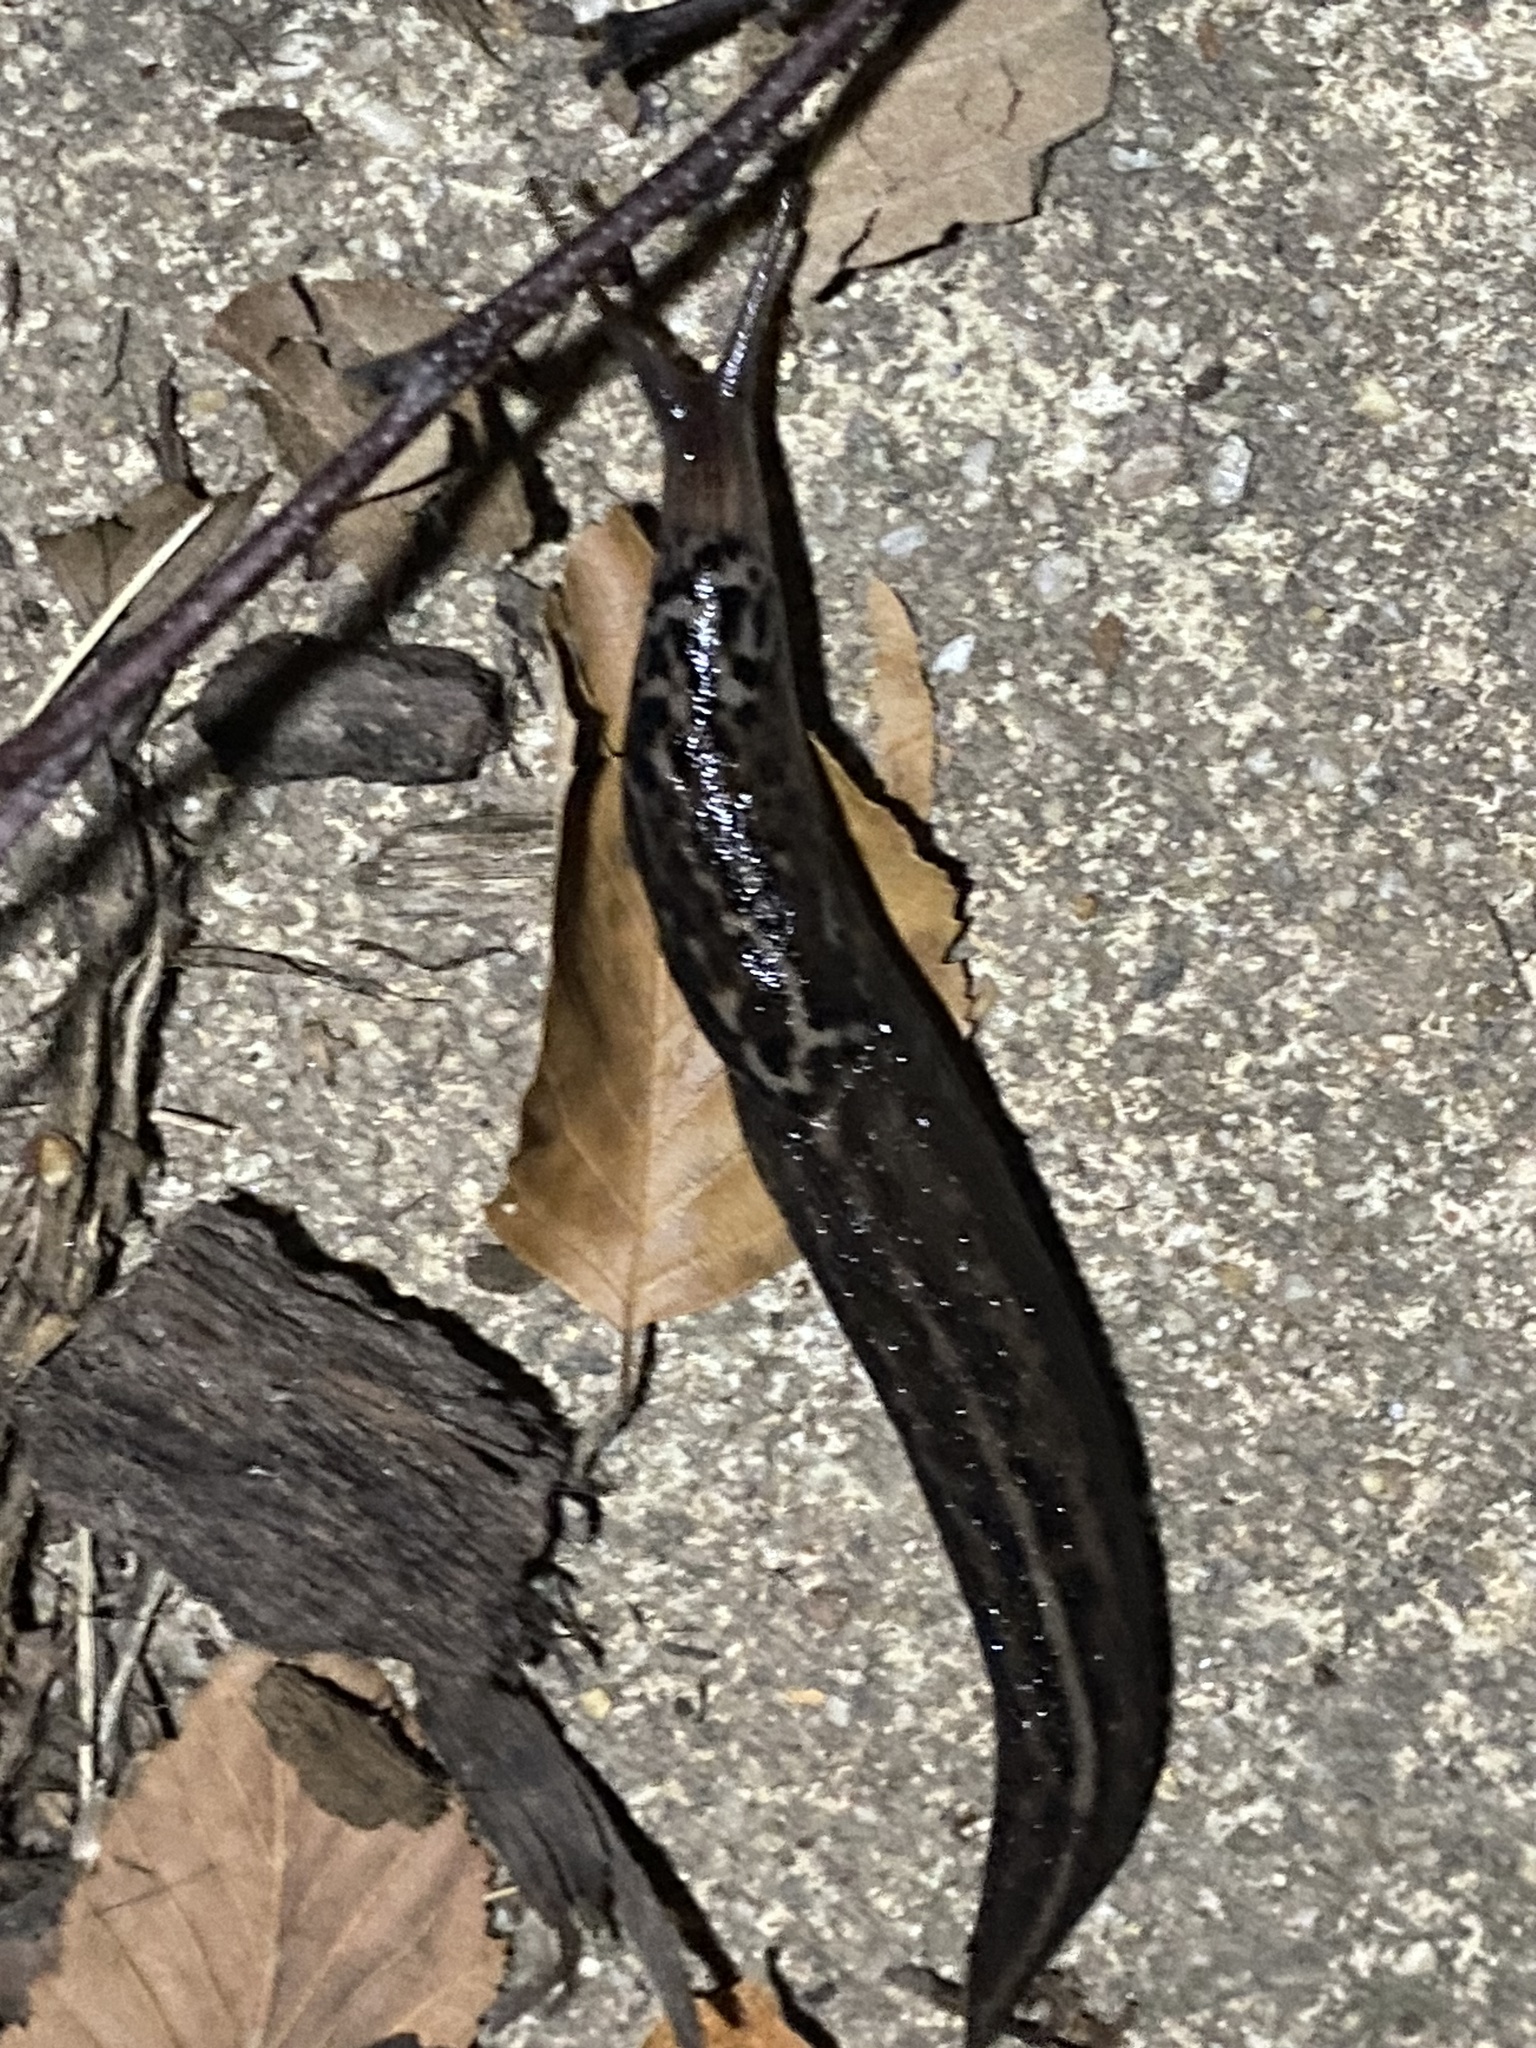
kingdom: Animalia
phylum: Mollusca
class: Gastropoda
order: Stylommatophora
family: Limacidae
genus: Limax
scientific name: Limax maximus
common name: Great grey slug
